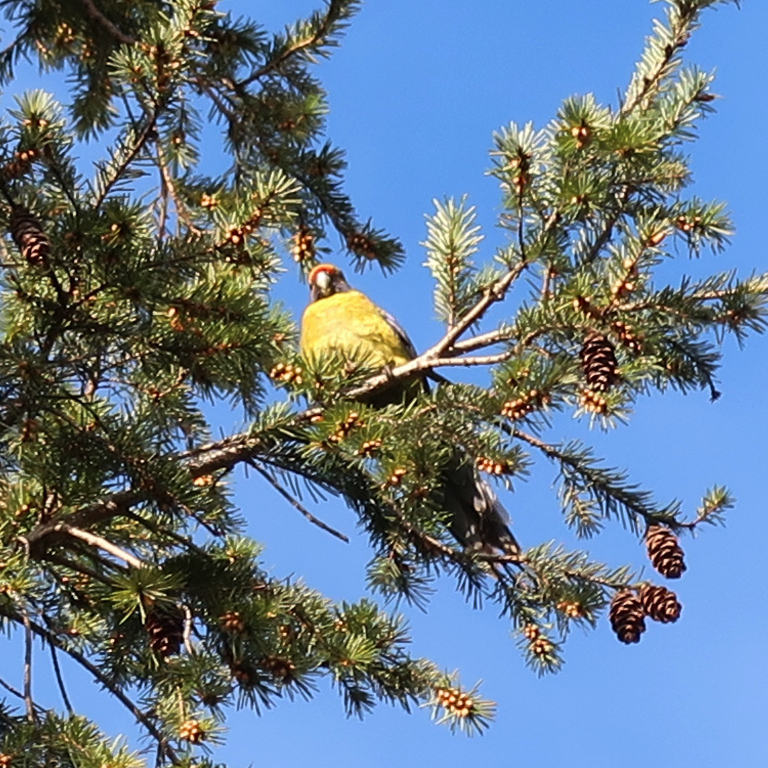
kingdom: Animalia
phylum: Chordata
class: Aves
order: Psittaciformes
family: Psittacidae
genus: Platycercus
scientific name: Platycercus caledonicus
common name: Green rosella
